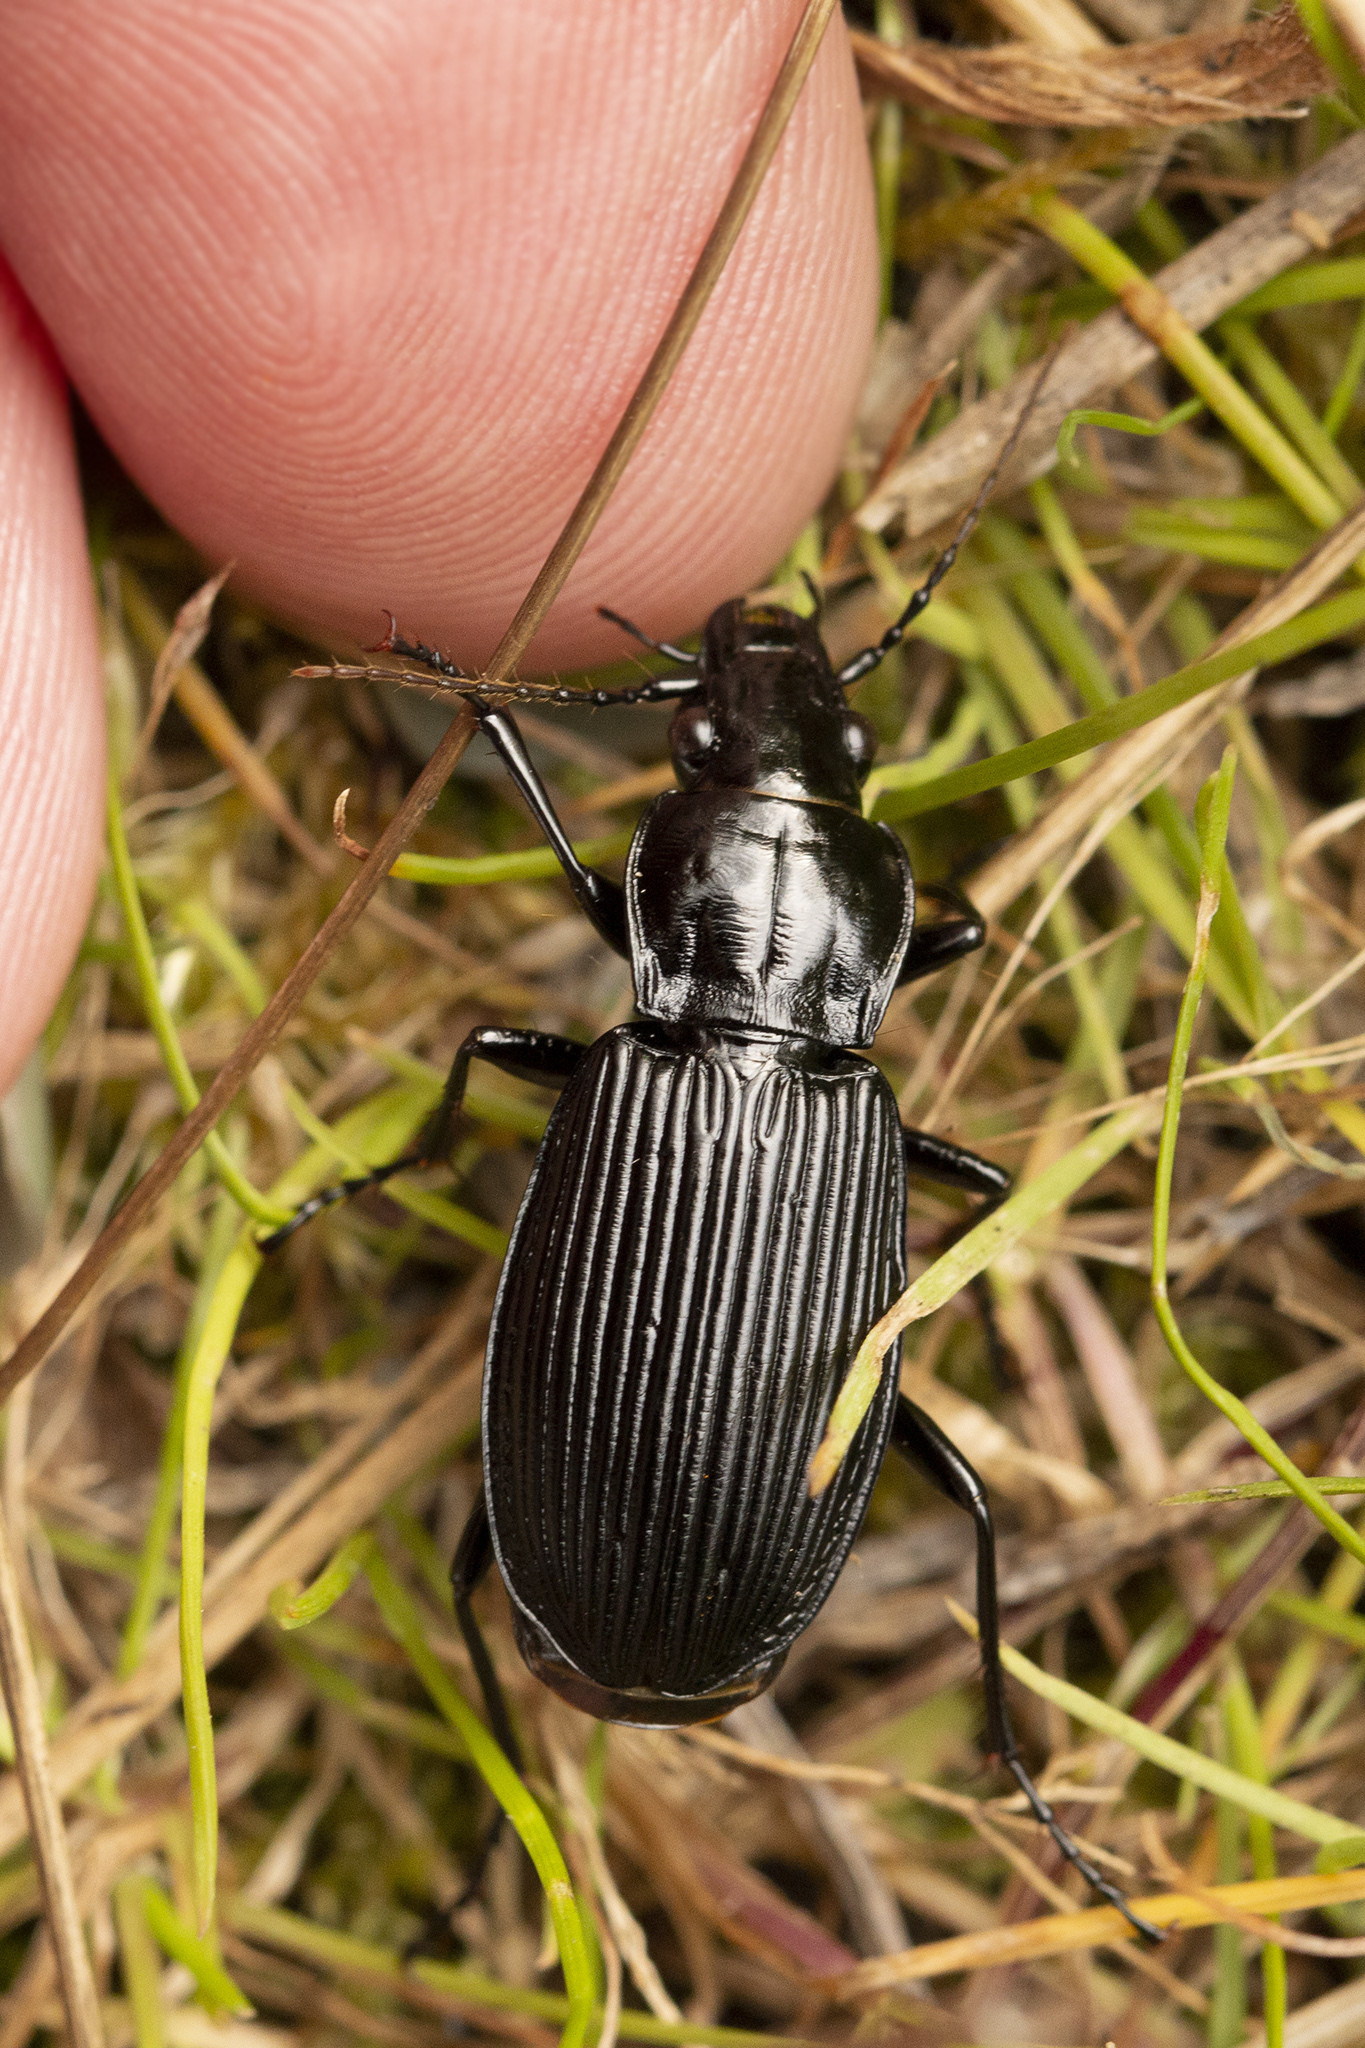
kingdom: Animalia
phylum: Arthropoda
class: Insecta
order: Coleoptera
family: Carabidae
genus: Pterostichus
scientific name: Pterostichus niger
